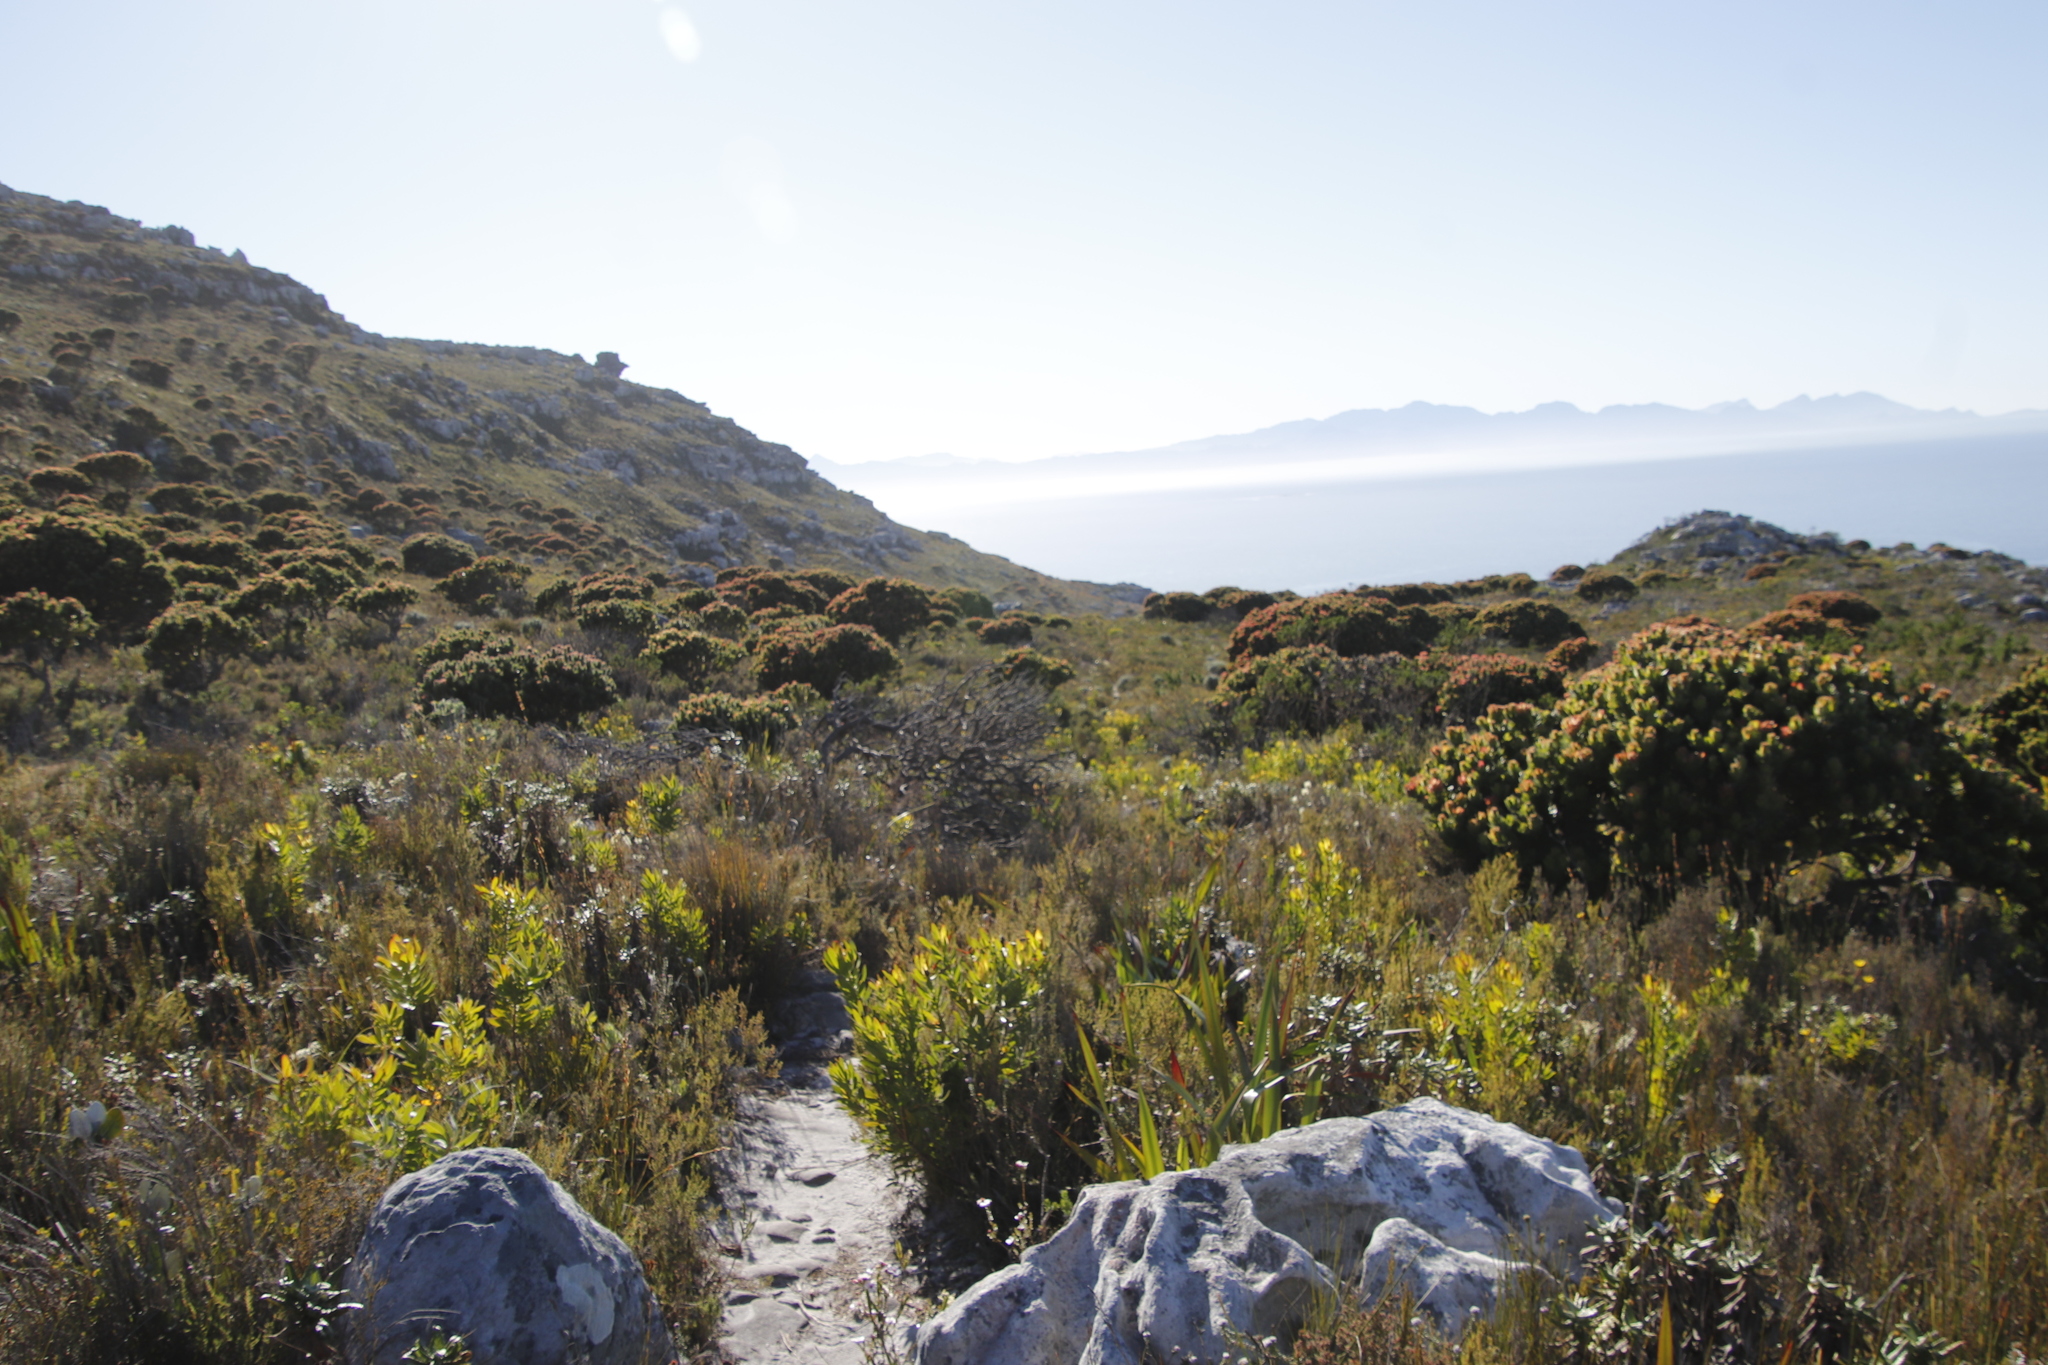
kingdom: Plantae
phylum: Tracheophyta
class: Magnoliopsida
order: Proteales
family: Proteaceae
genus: Leucadendron
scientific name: Leucadendron laureolum
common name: Golden sunshinebush
